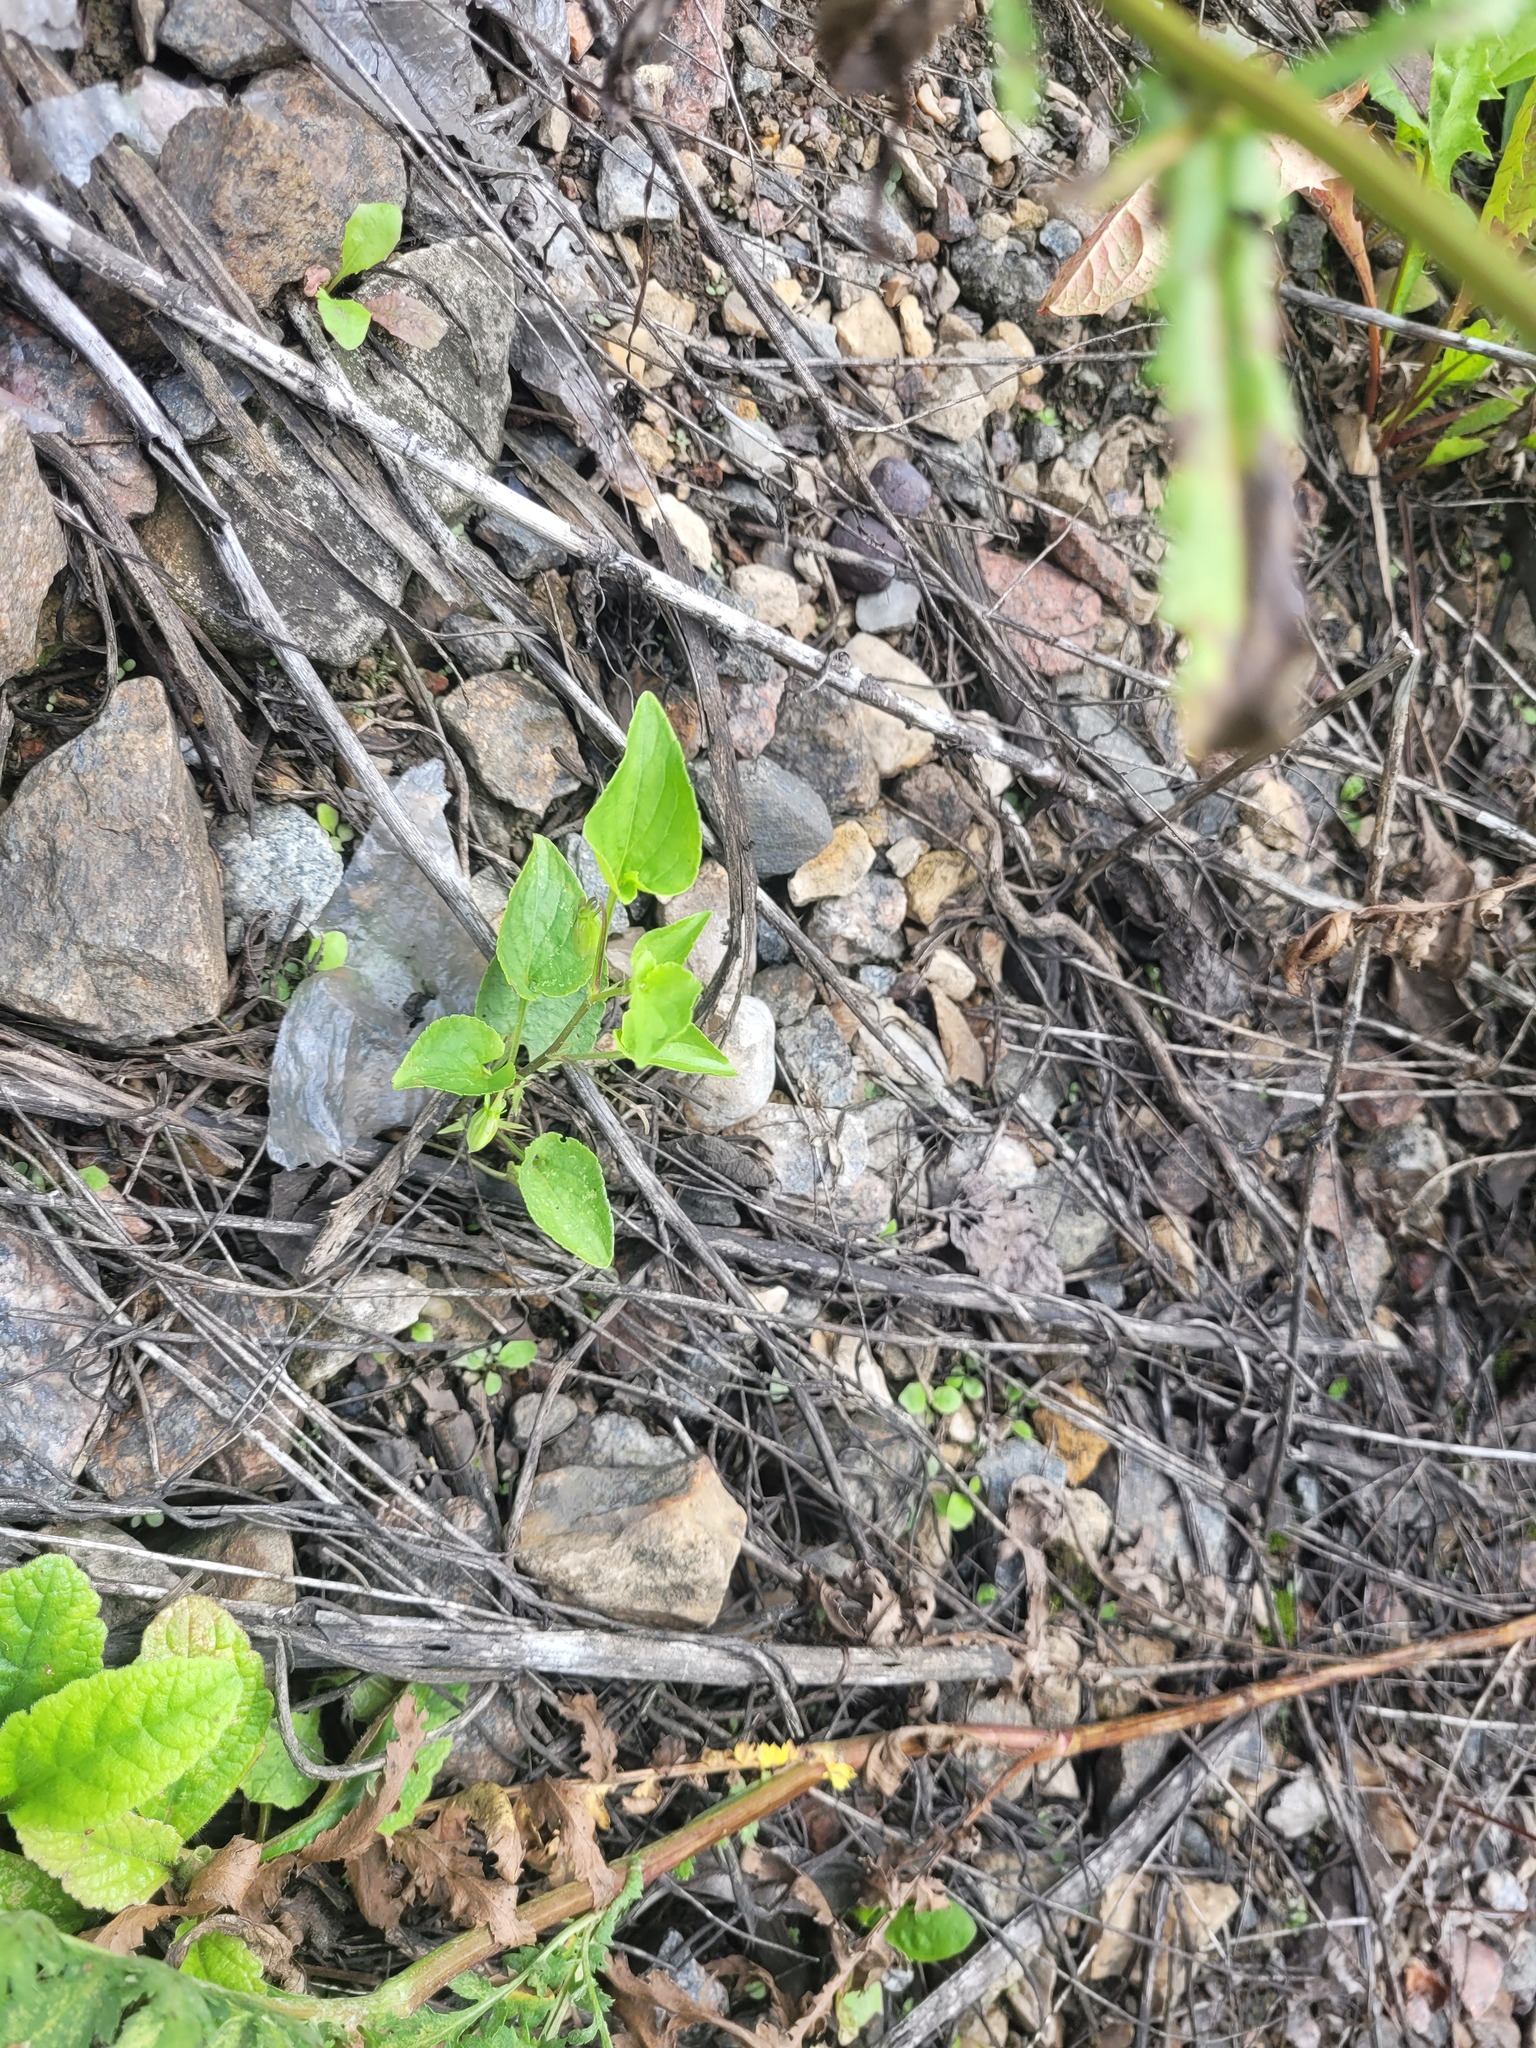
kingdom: Plantae
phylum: Tracheophyta
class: Magnoliopsida
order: Malpighiales
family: Violaceae
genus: Viola
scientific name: Viola
